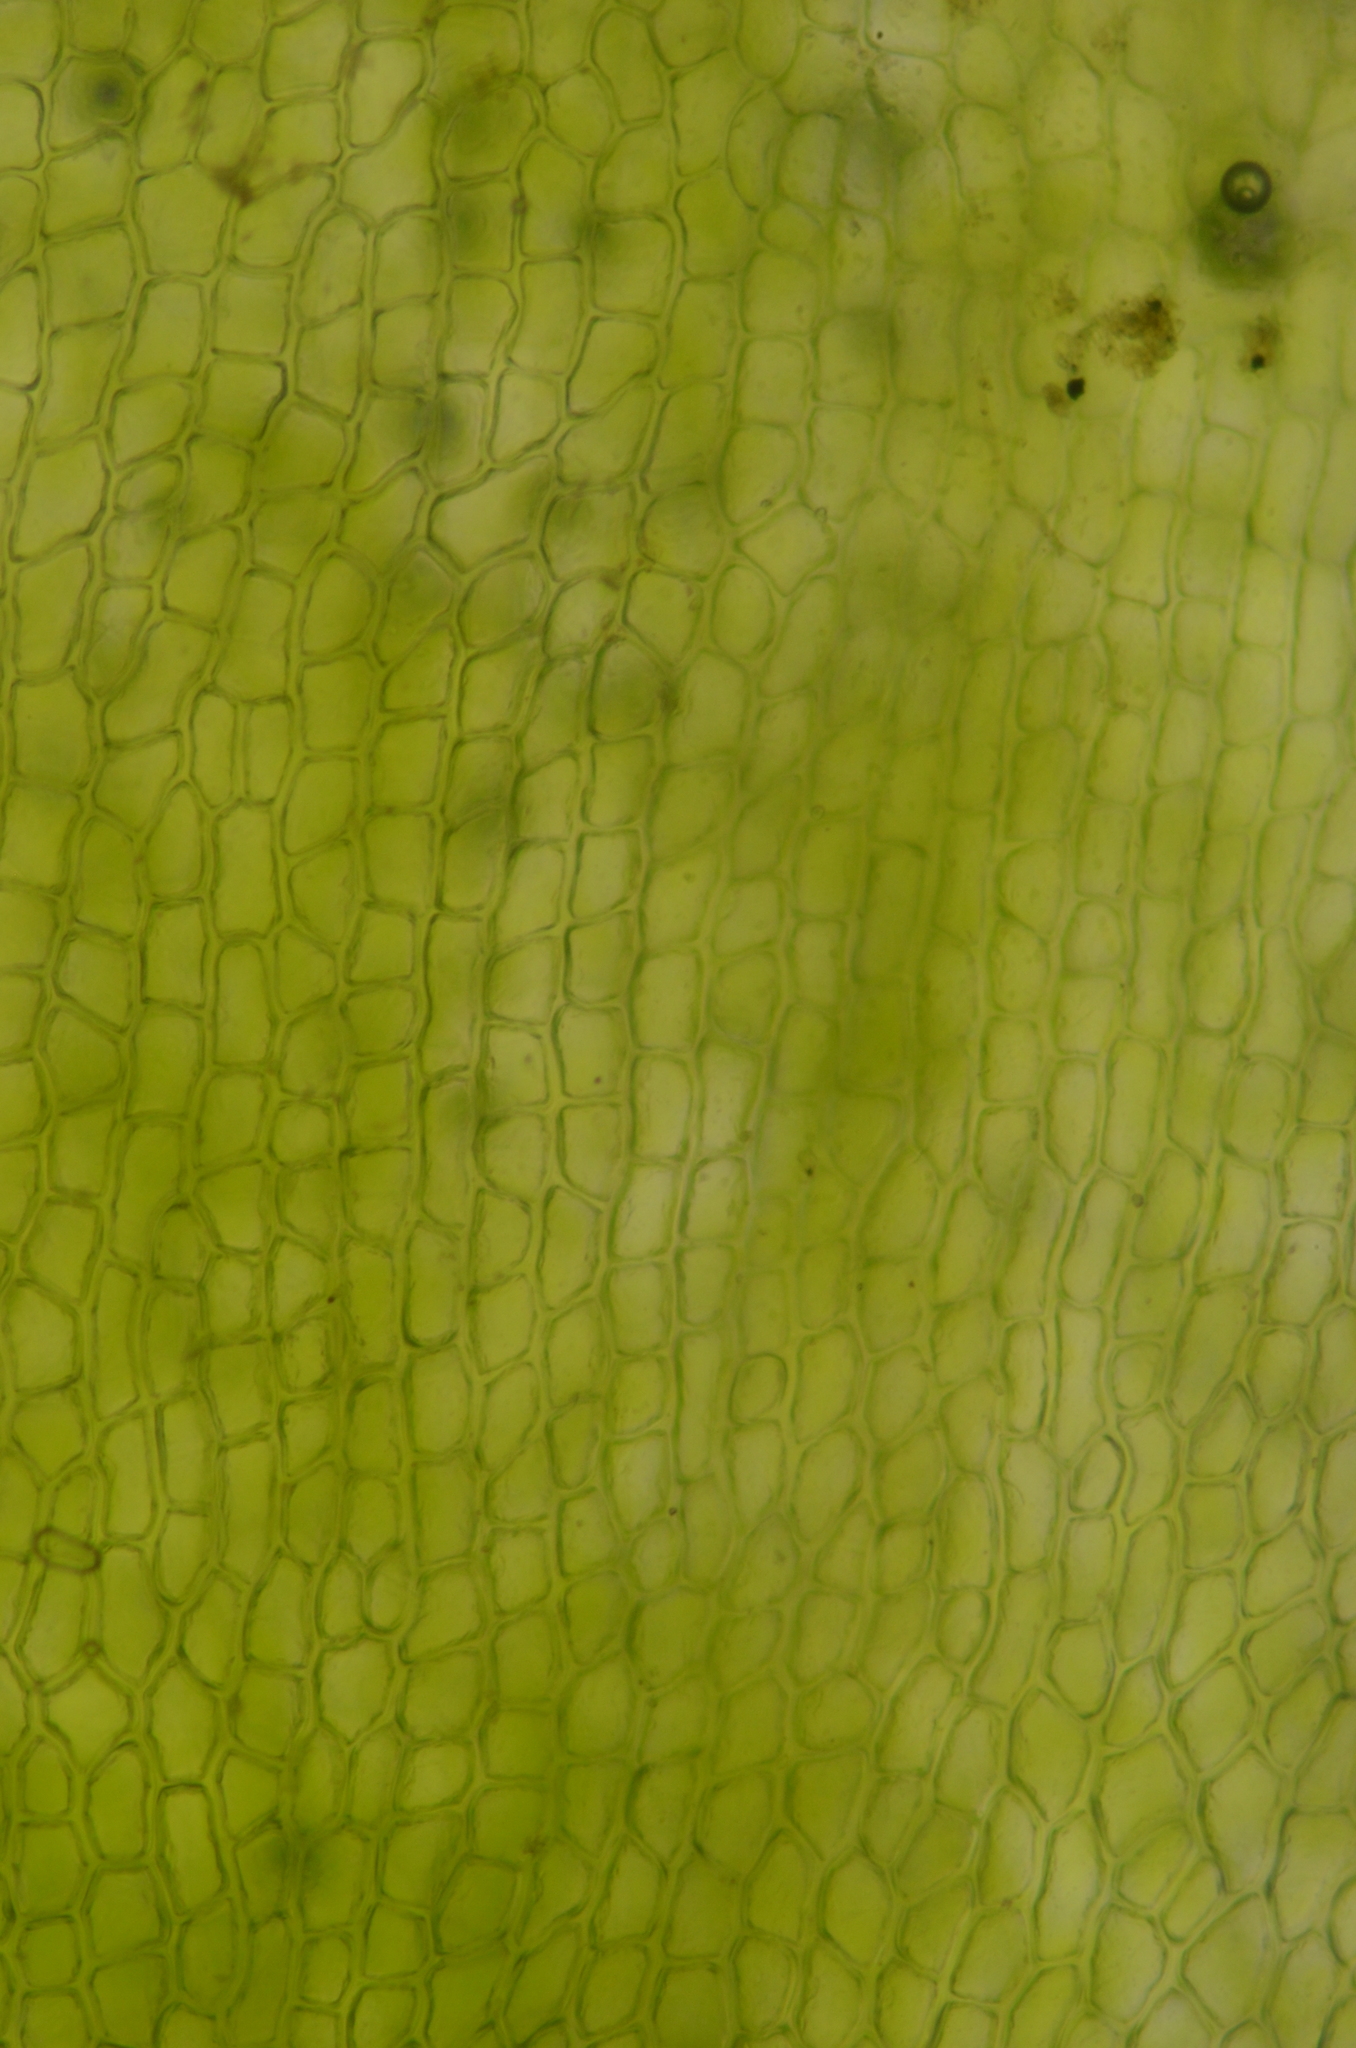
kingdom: Plantae
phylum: Bryophyta
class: Bryopsida
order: Funariales
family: Funariaceae
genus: Physcomitrium
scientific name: Physcomitrium pyriforme
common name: Common bladder-moss
